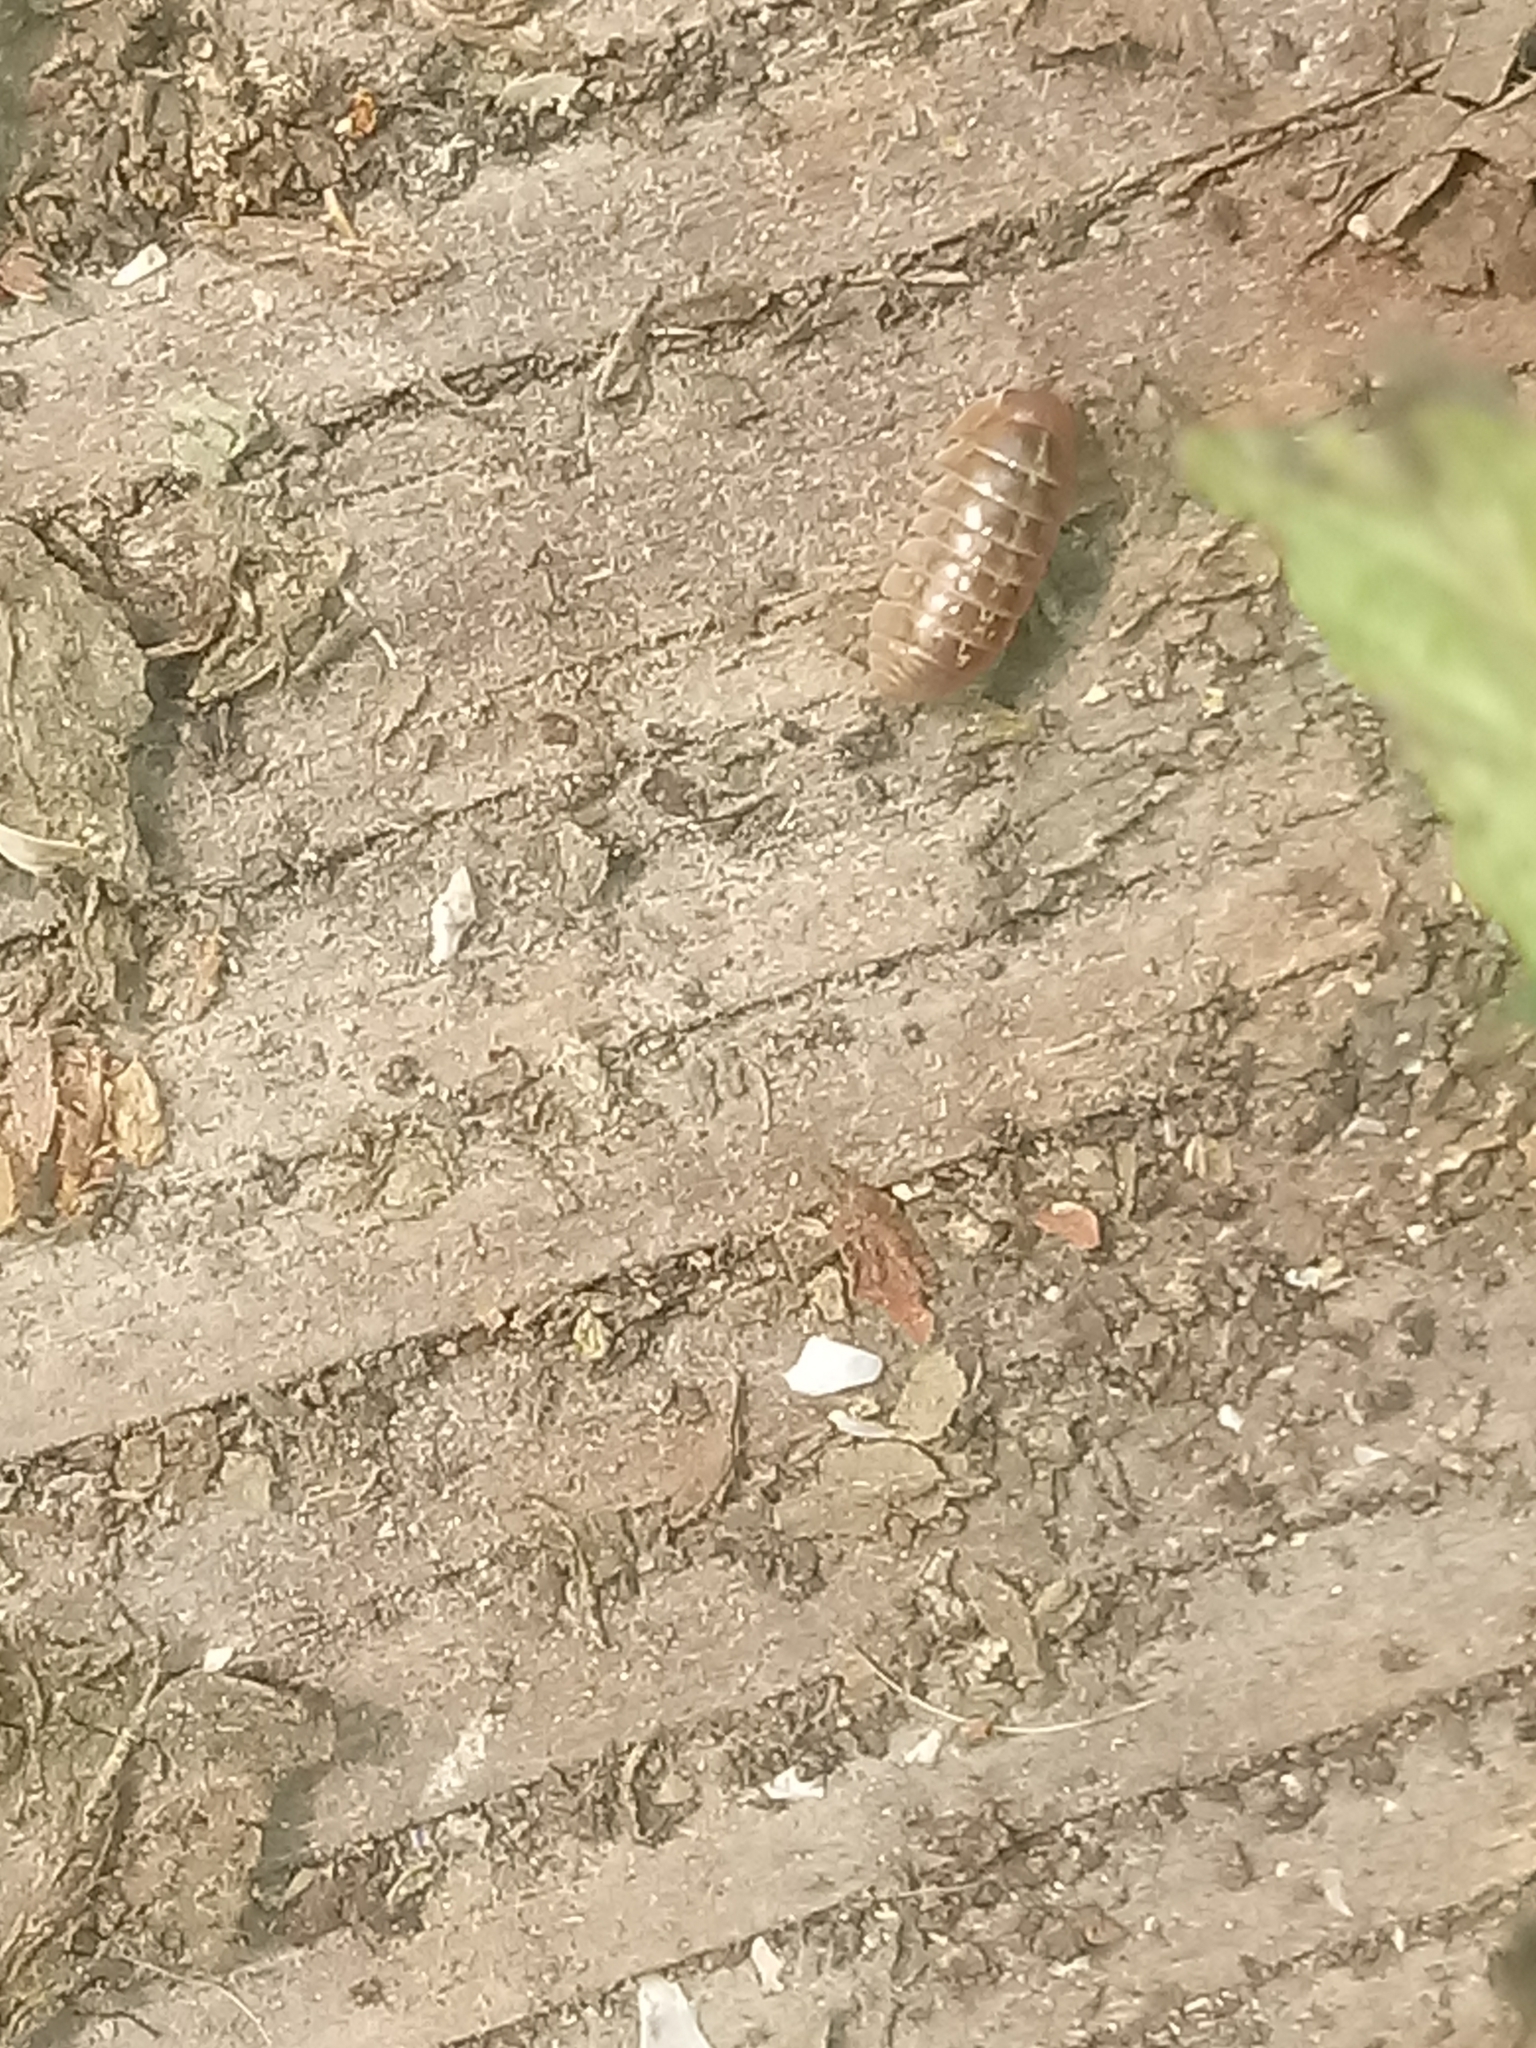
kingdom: Animalia
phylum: Arthropoda
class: Malacostraca
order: Isopoda
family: Armadillidiidae
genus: Armadillidium
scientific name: Armadillidium vulgare
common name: Common pill woodlouse
